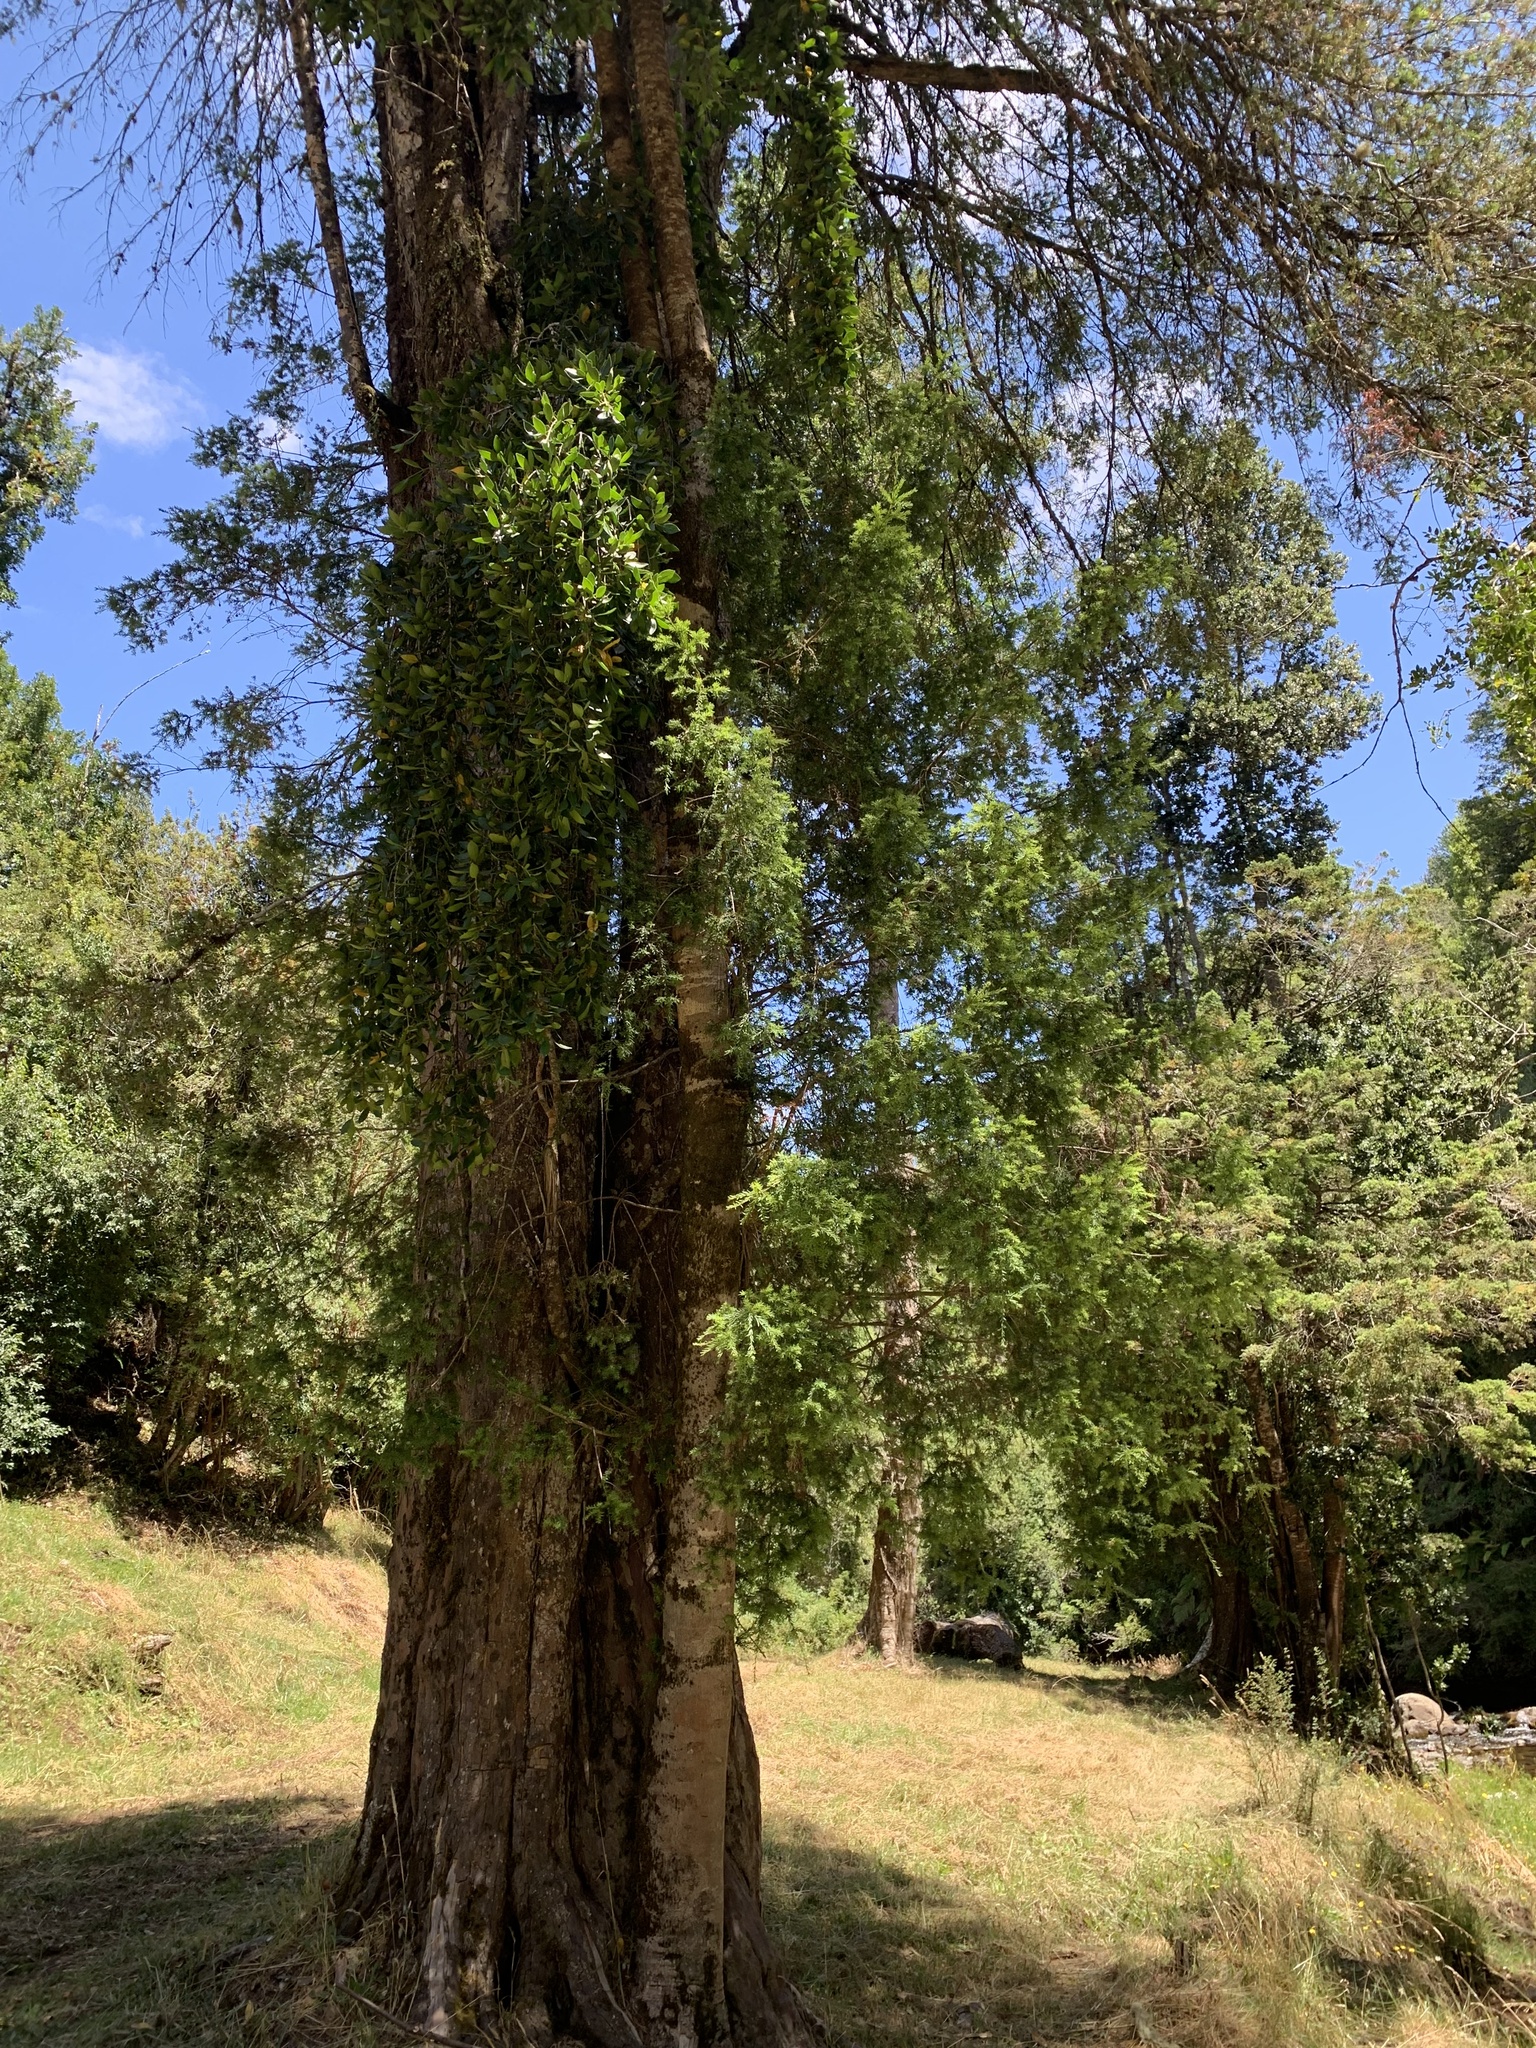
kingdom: Plantae
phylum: Tracheophyta
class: Pinopsida
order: Pinales
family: Podocarpaceae
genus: Saxegothaea
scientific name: Saxegothaea conspicua
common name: Prince albert's yew
